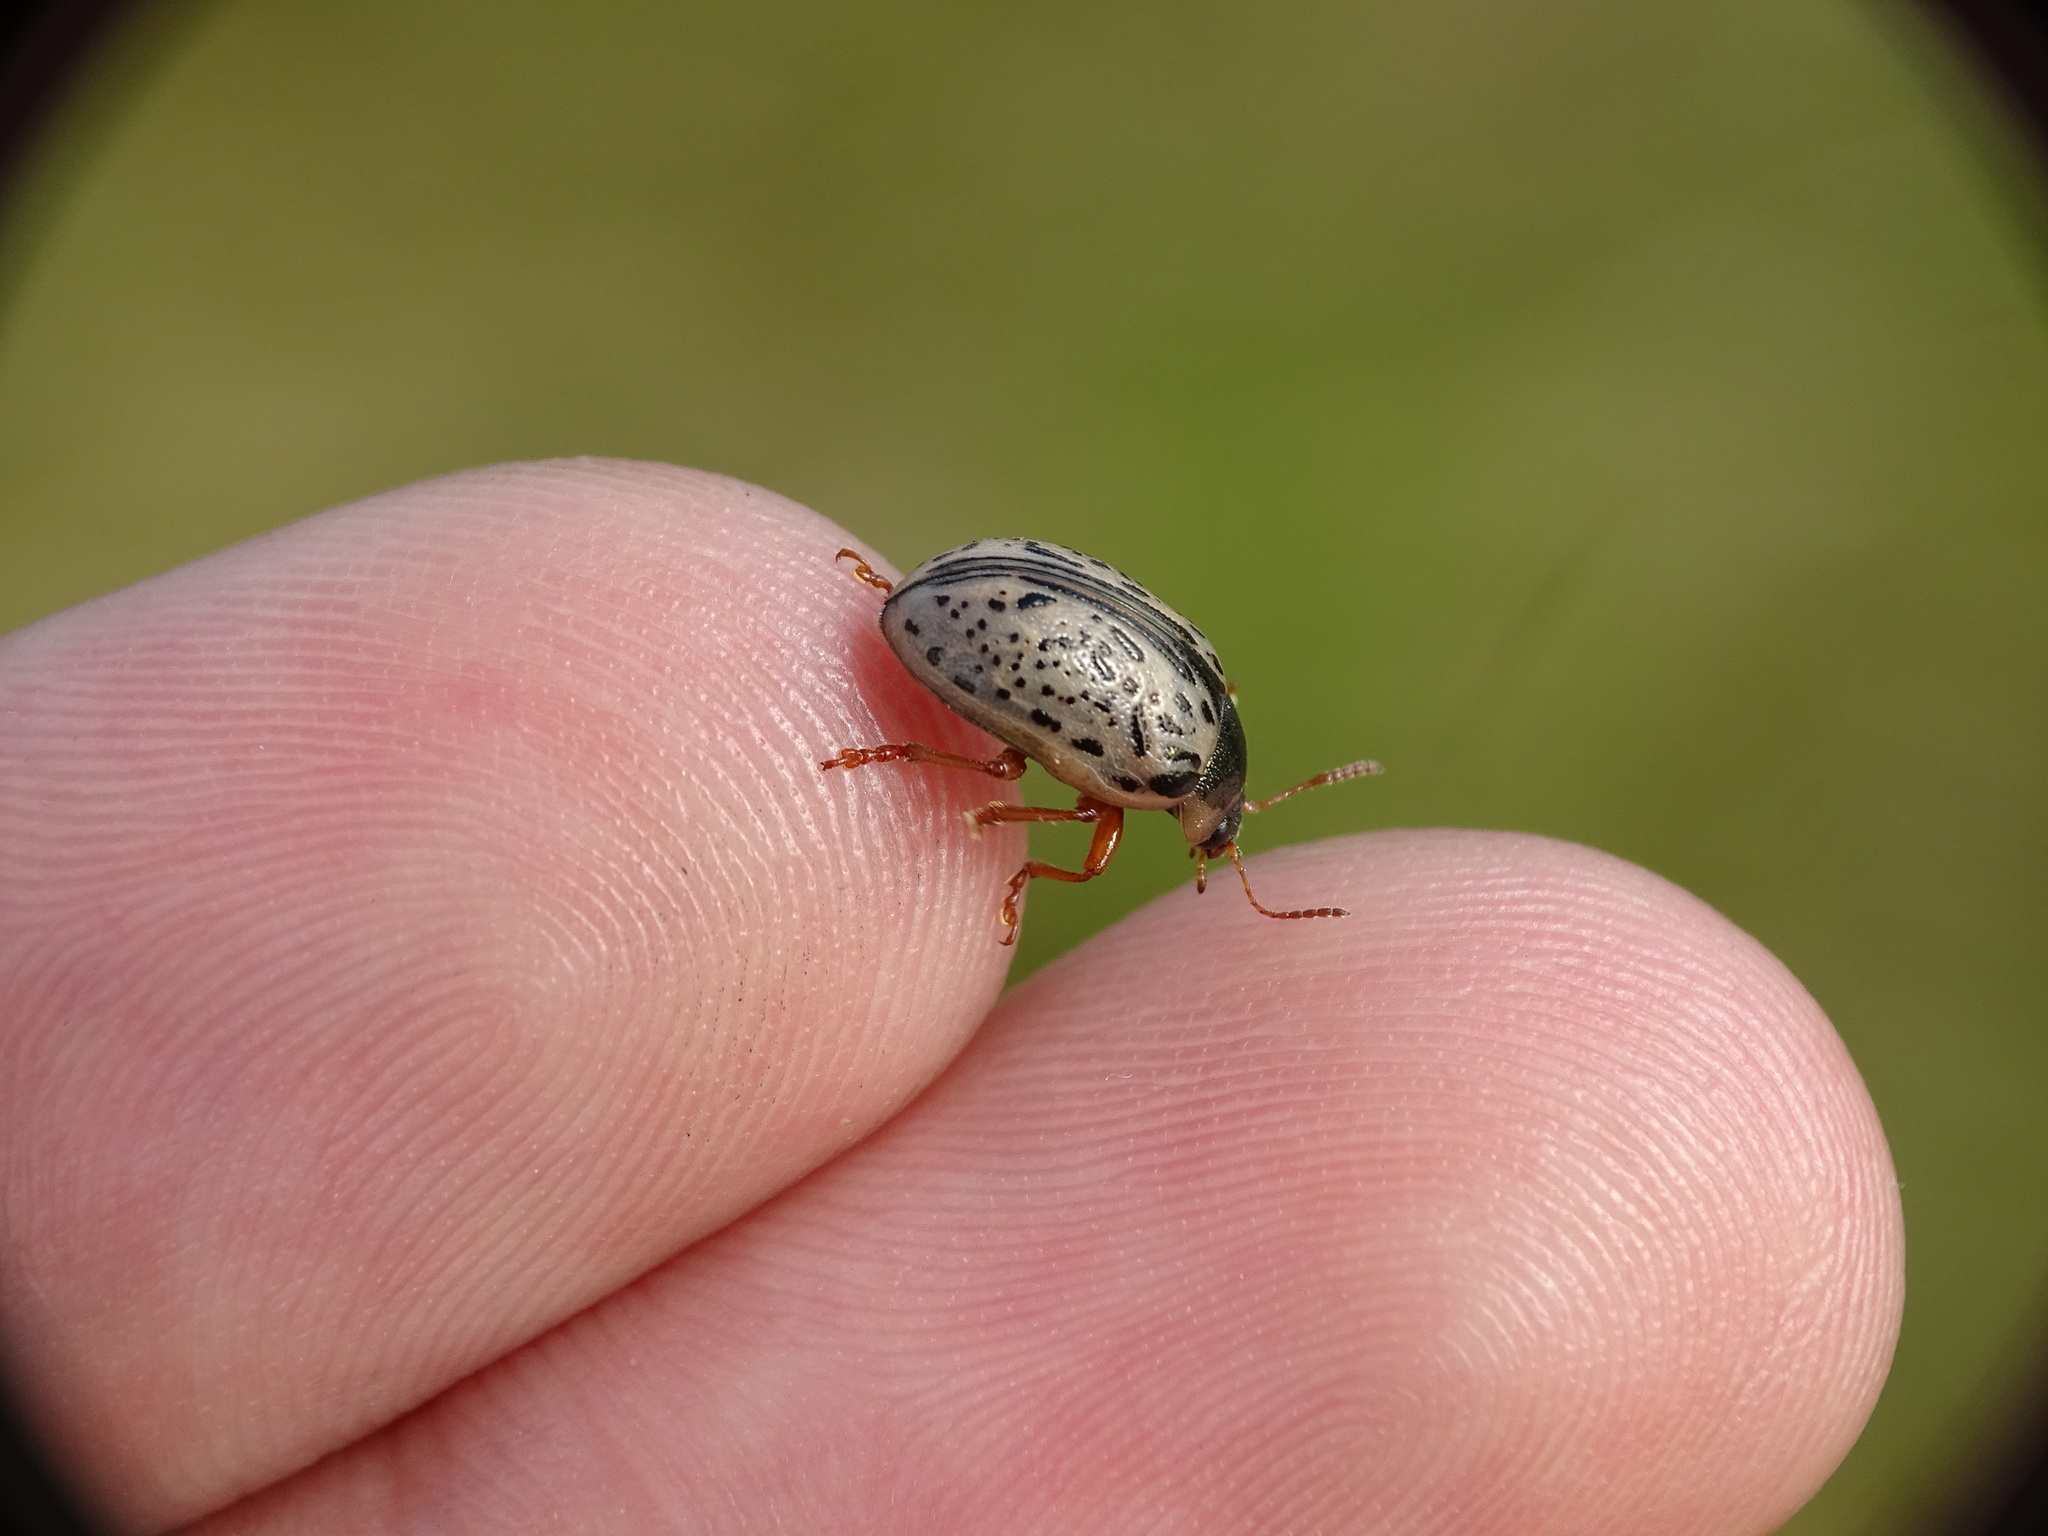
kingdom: Animalia
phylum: Arthropoda
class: Insecta
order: Coleoptera
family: Chrysomelidae
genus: Calligrapha
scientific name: Calligrapha multipunctata
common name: Common willow calligrapher beetle
